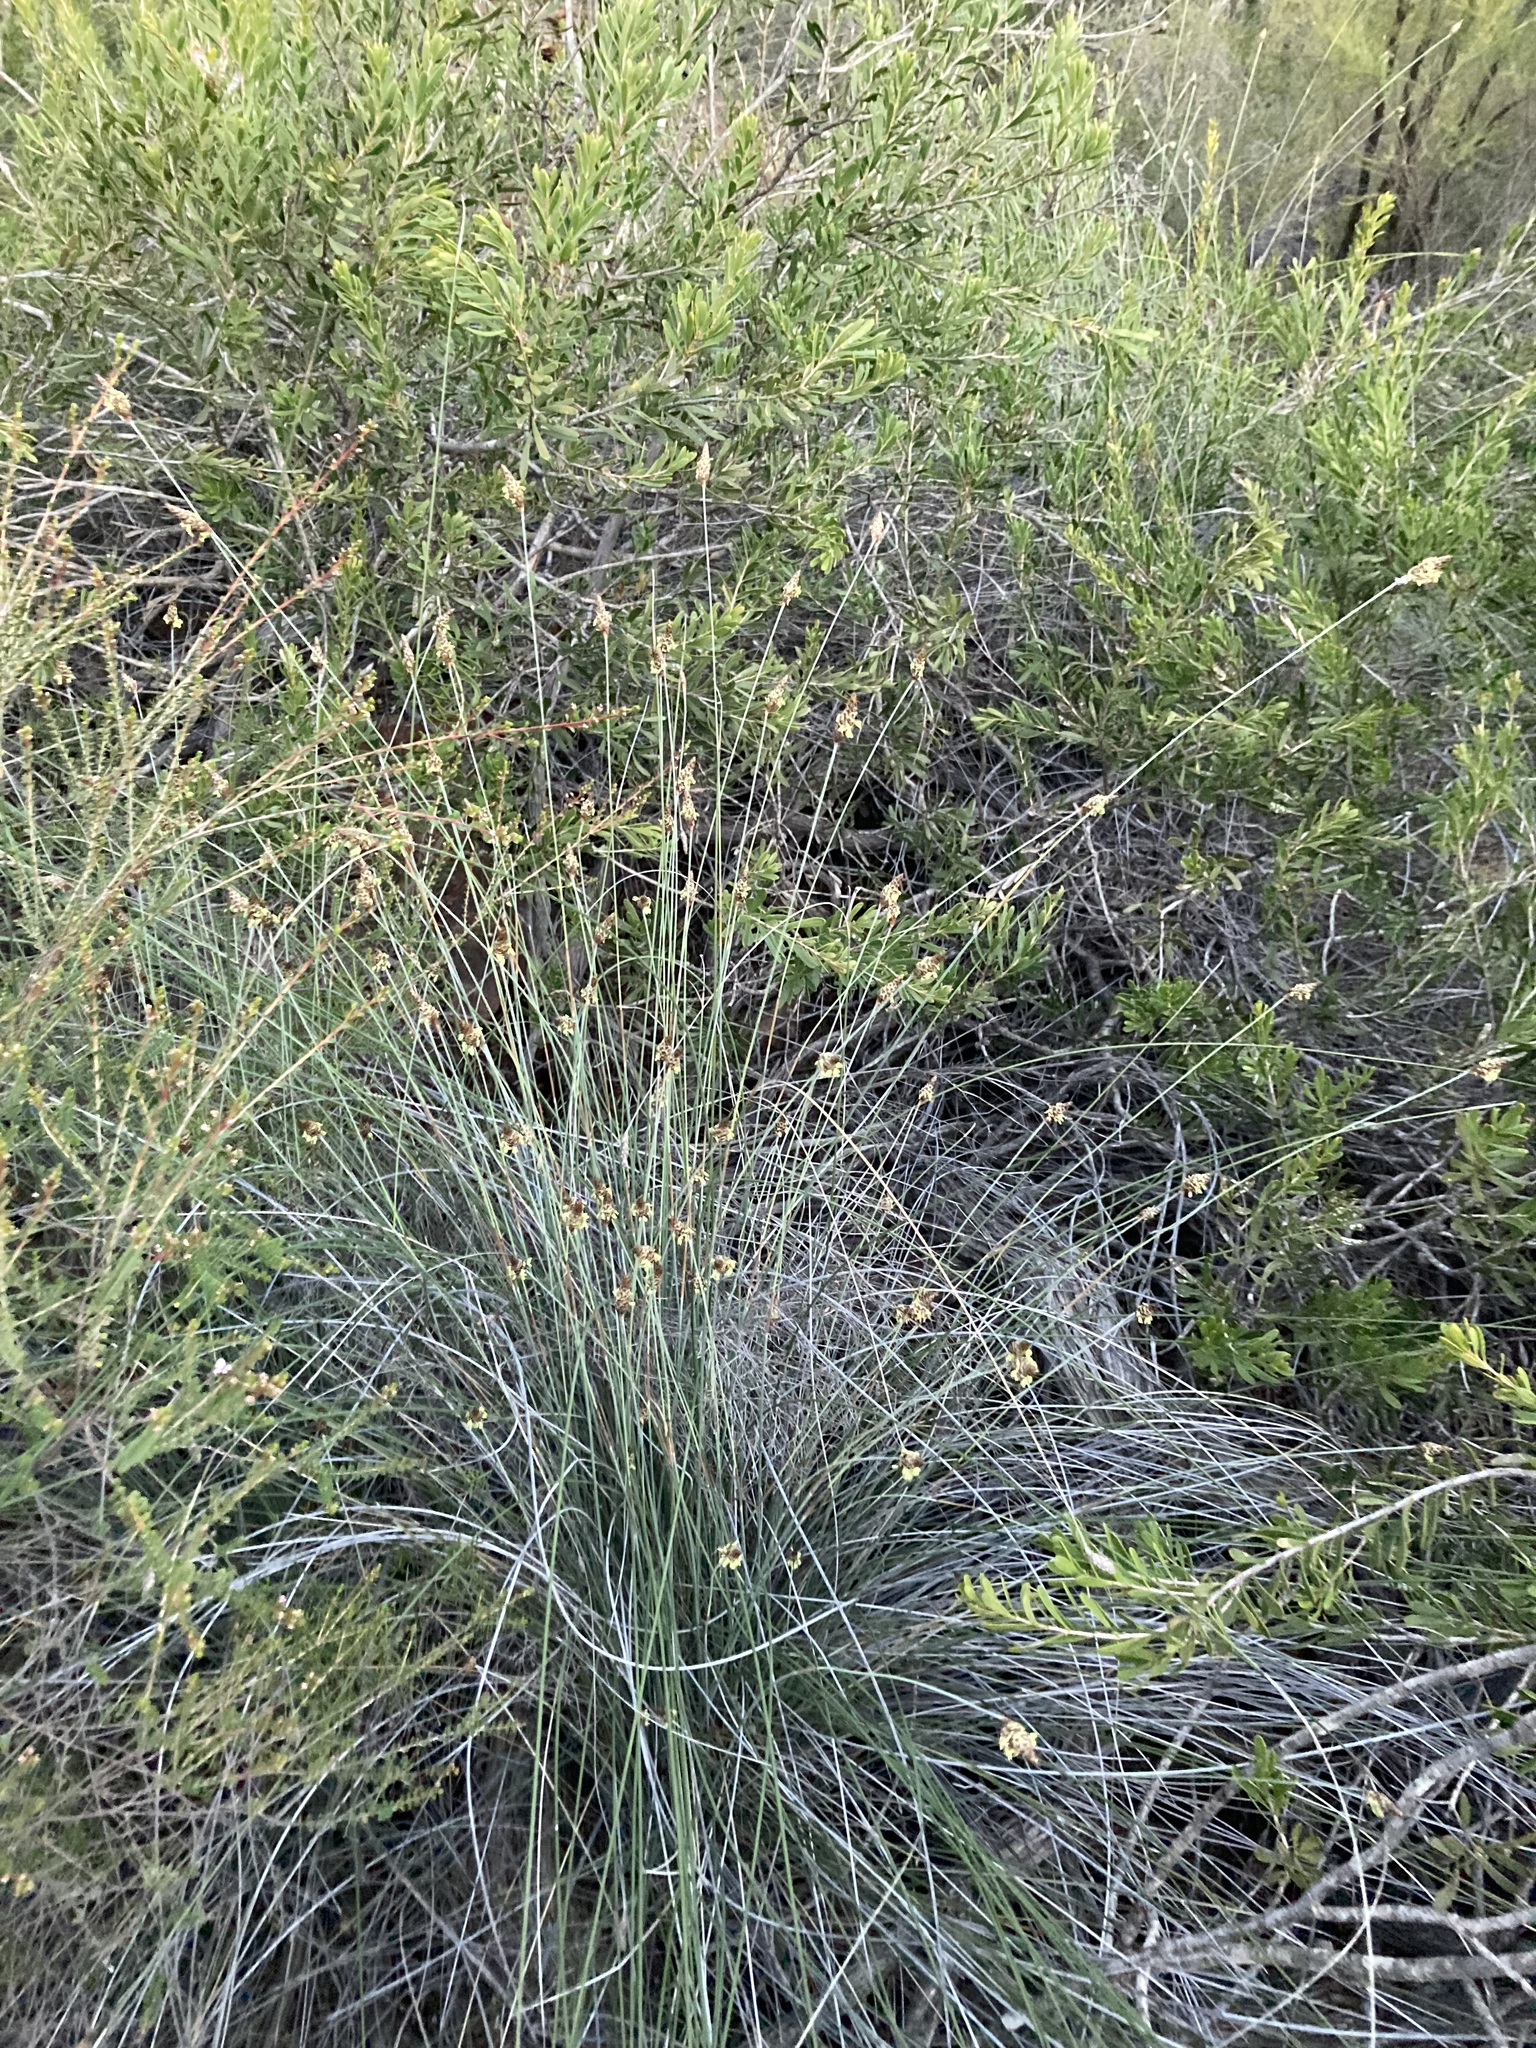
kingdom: Plantae
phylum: Tracheophyta
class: Liliopsida
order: Poales
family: Ecdeiocoleaceae
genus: Ecdeiocolea
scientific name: Ecdeiocolea monostachya
